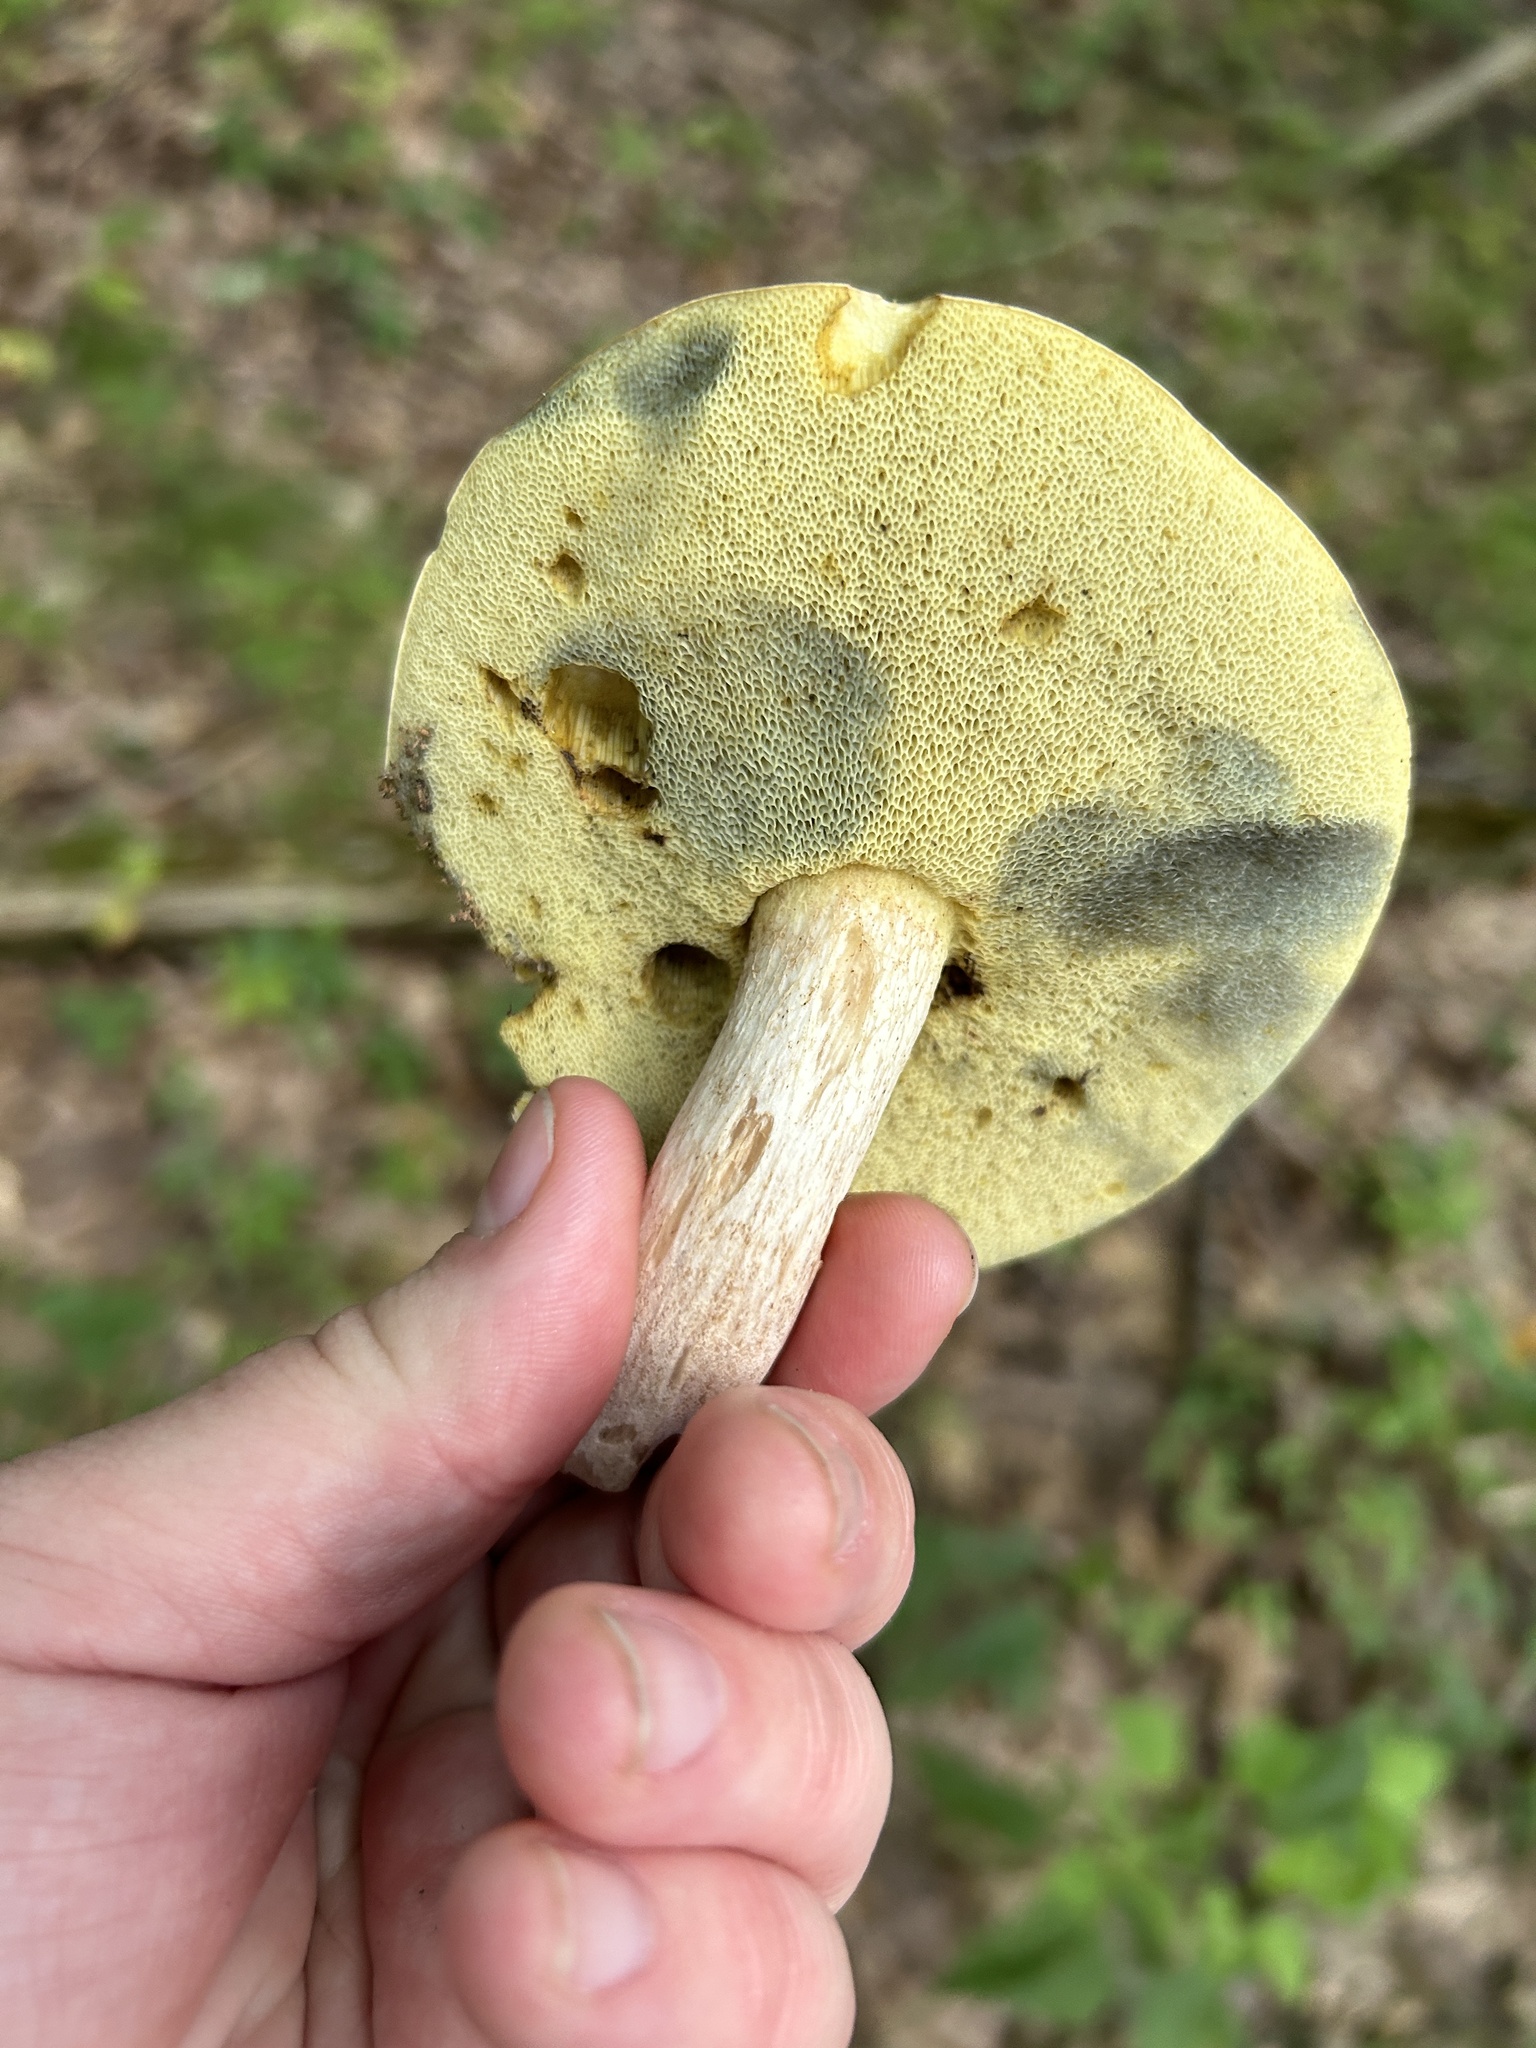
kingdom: Fungi
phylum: Basidiomycota
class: Agaricomycetes
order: Boletales
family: Boletaceae
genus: Imleria
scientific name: Imleria pallida
